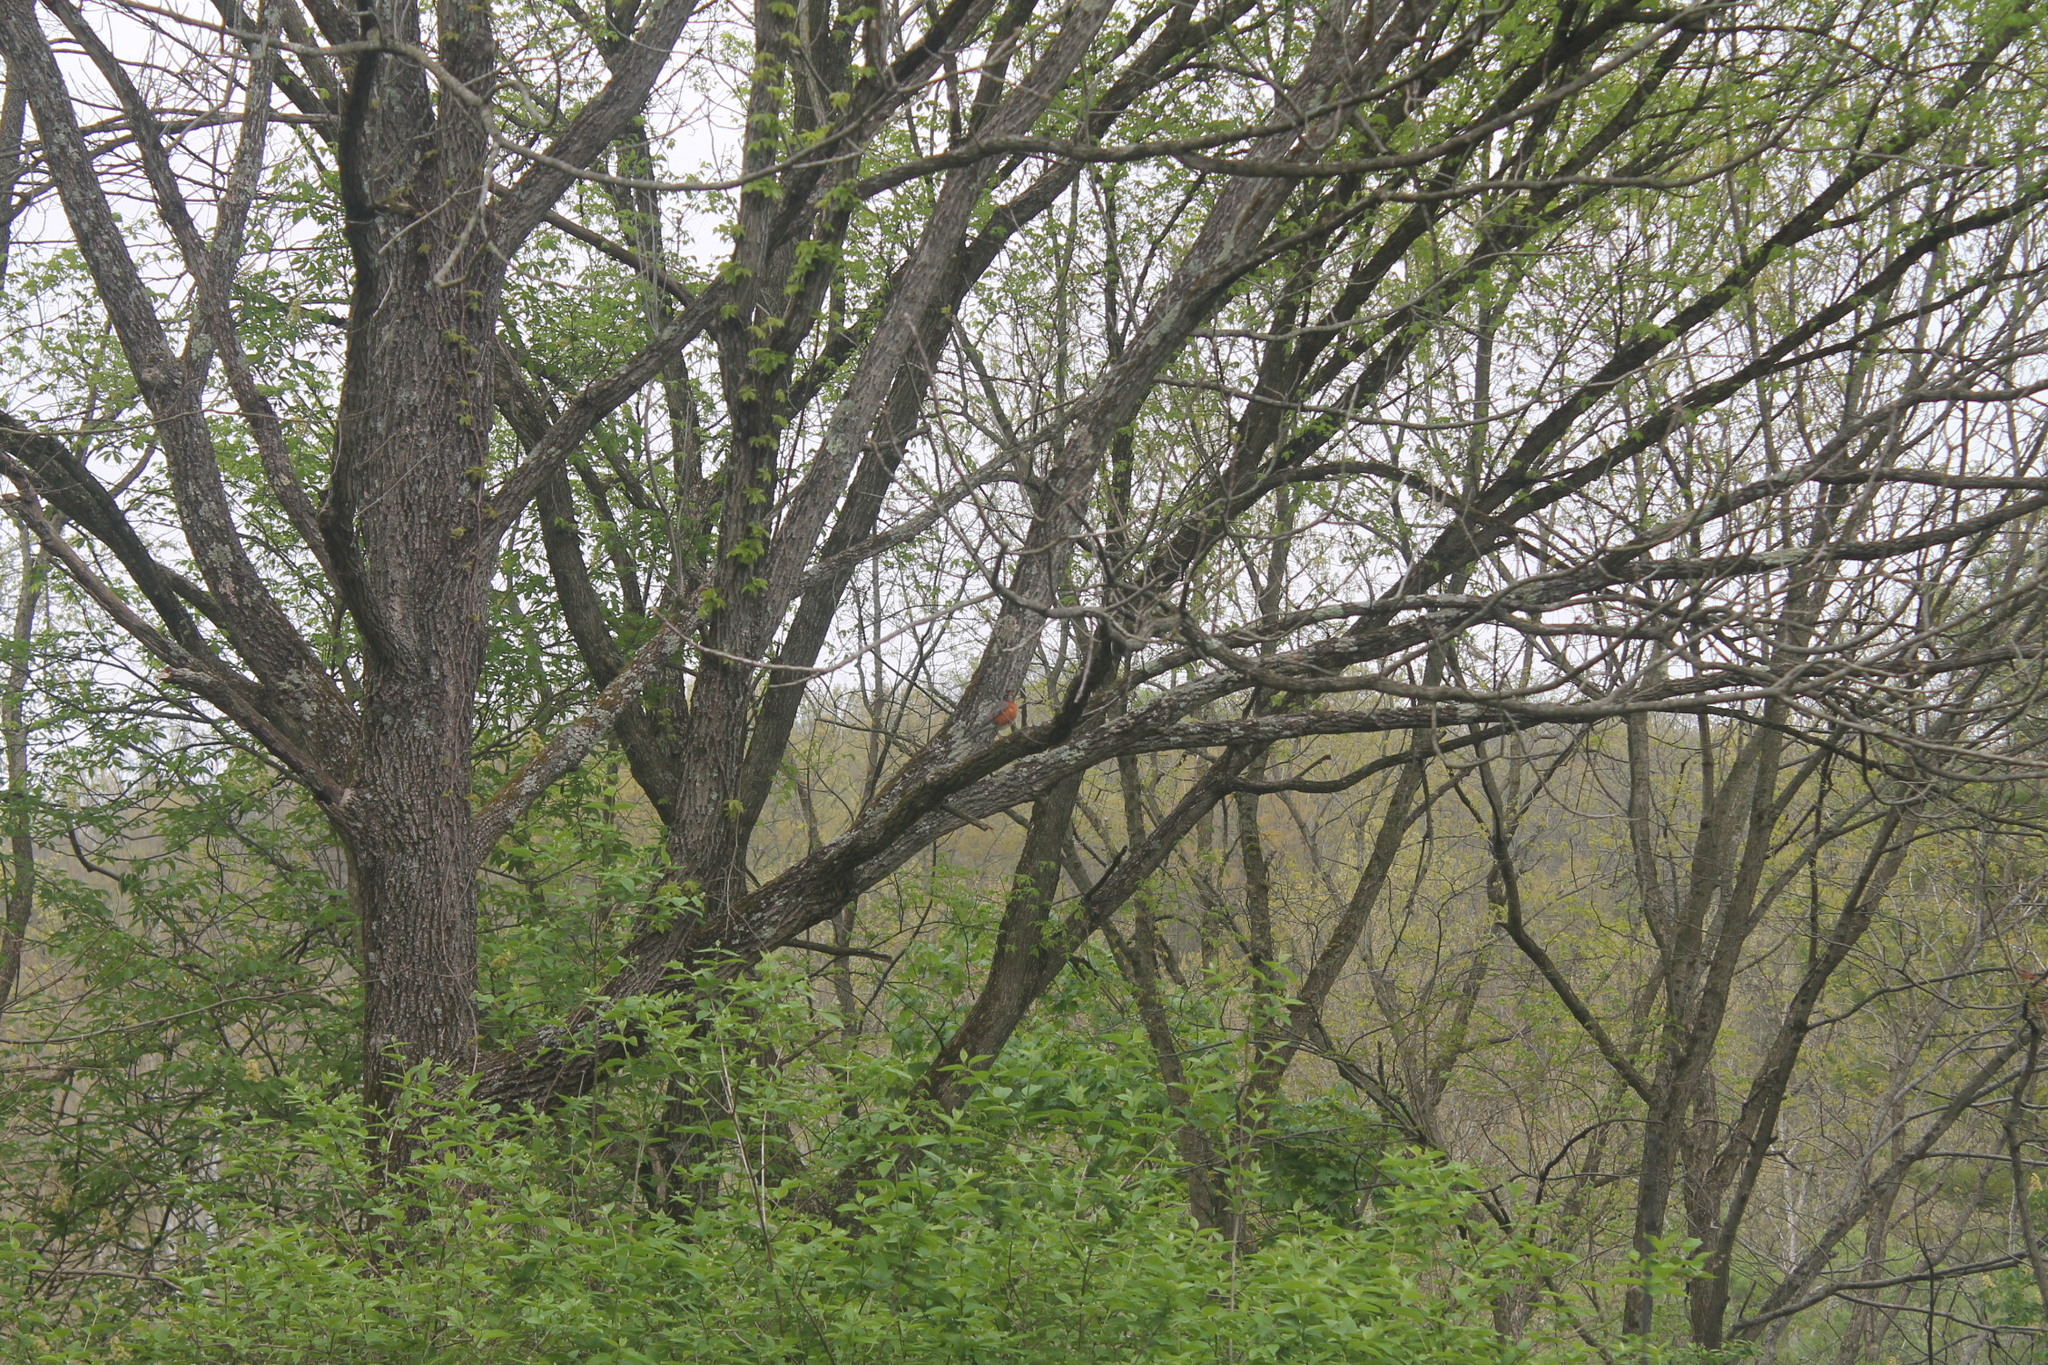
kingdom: Animalia
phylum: Chordata
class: Aves
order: Passeriformes
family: Turdidae
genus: Turdus
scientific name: Turdus migratorius
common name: American robin
